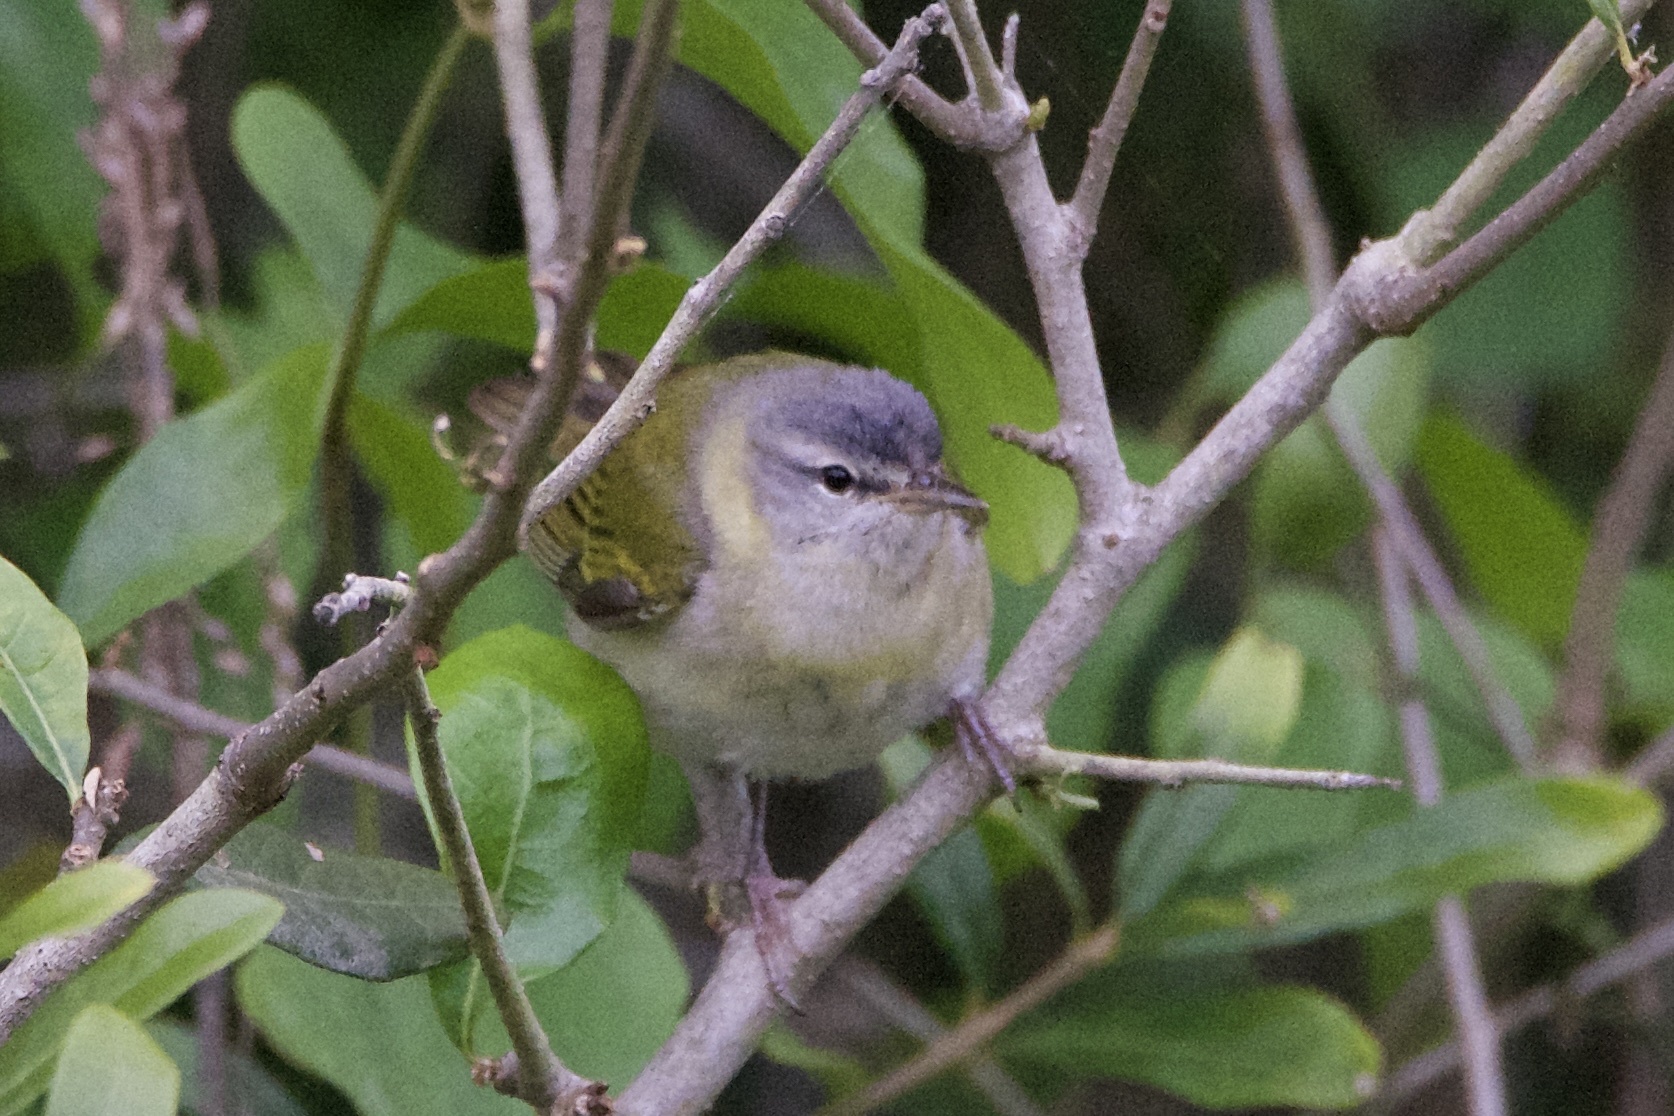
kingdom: Animalia
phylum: Chordata
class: Aves
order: Passeriformes
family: Parulidae
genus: Leiothlypis
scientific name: Leiothlypis peregrina
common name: Tennessee warbler
